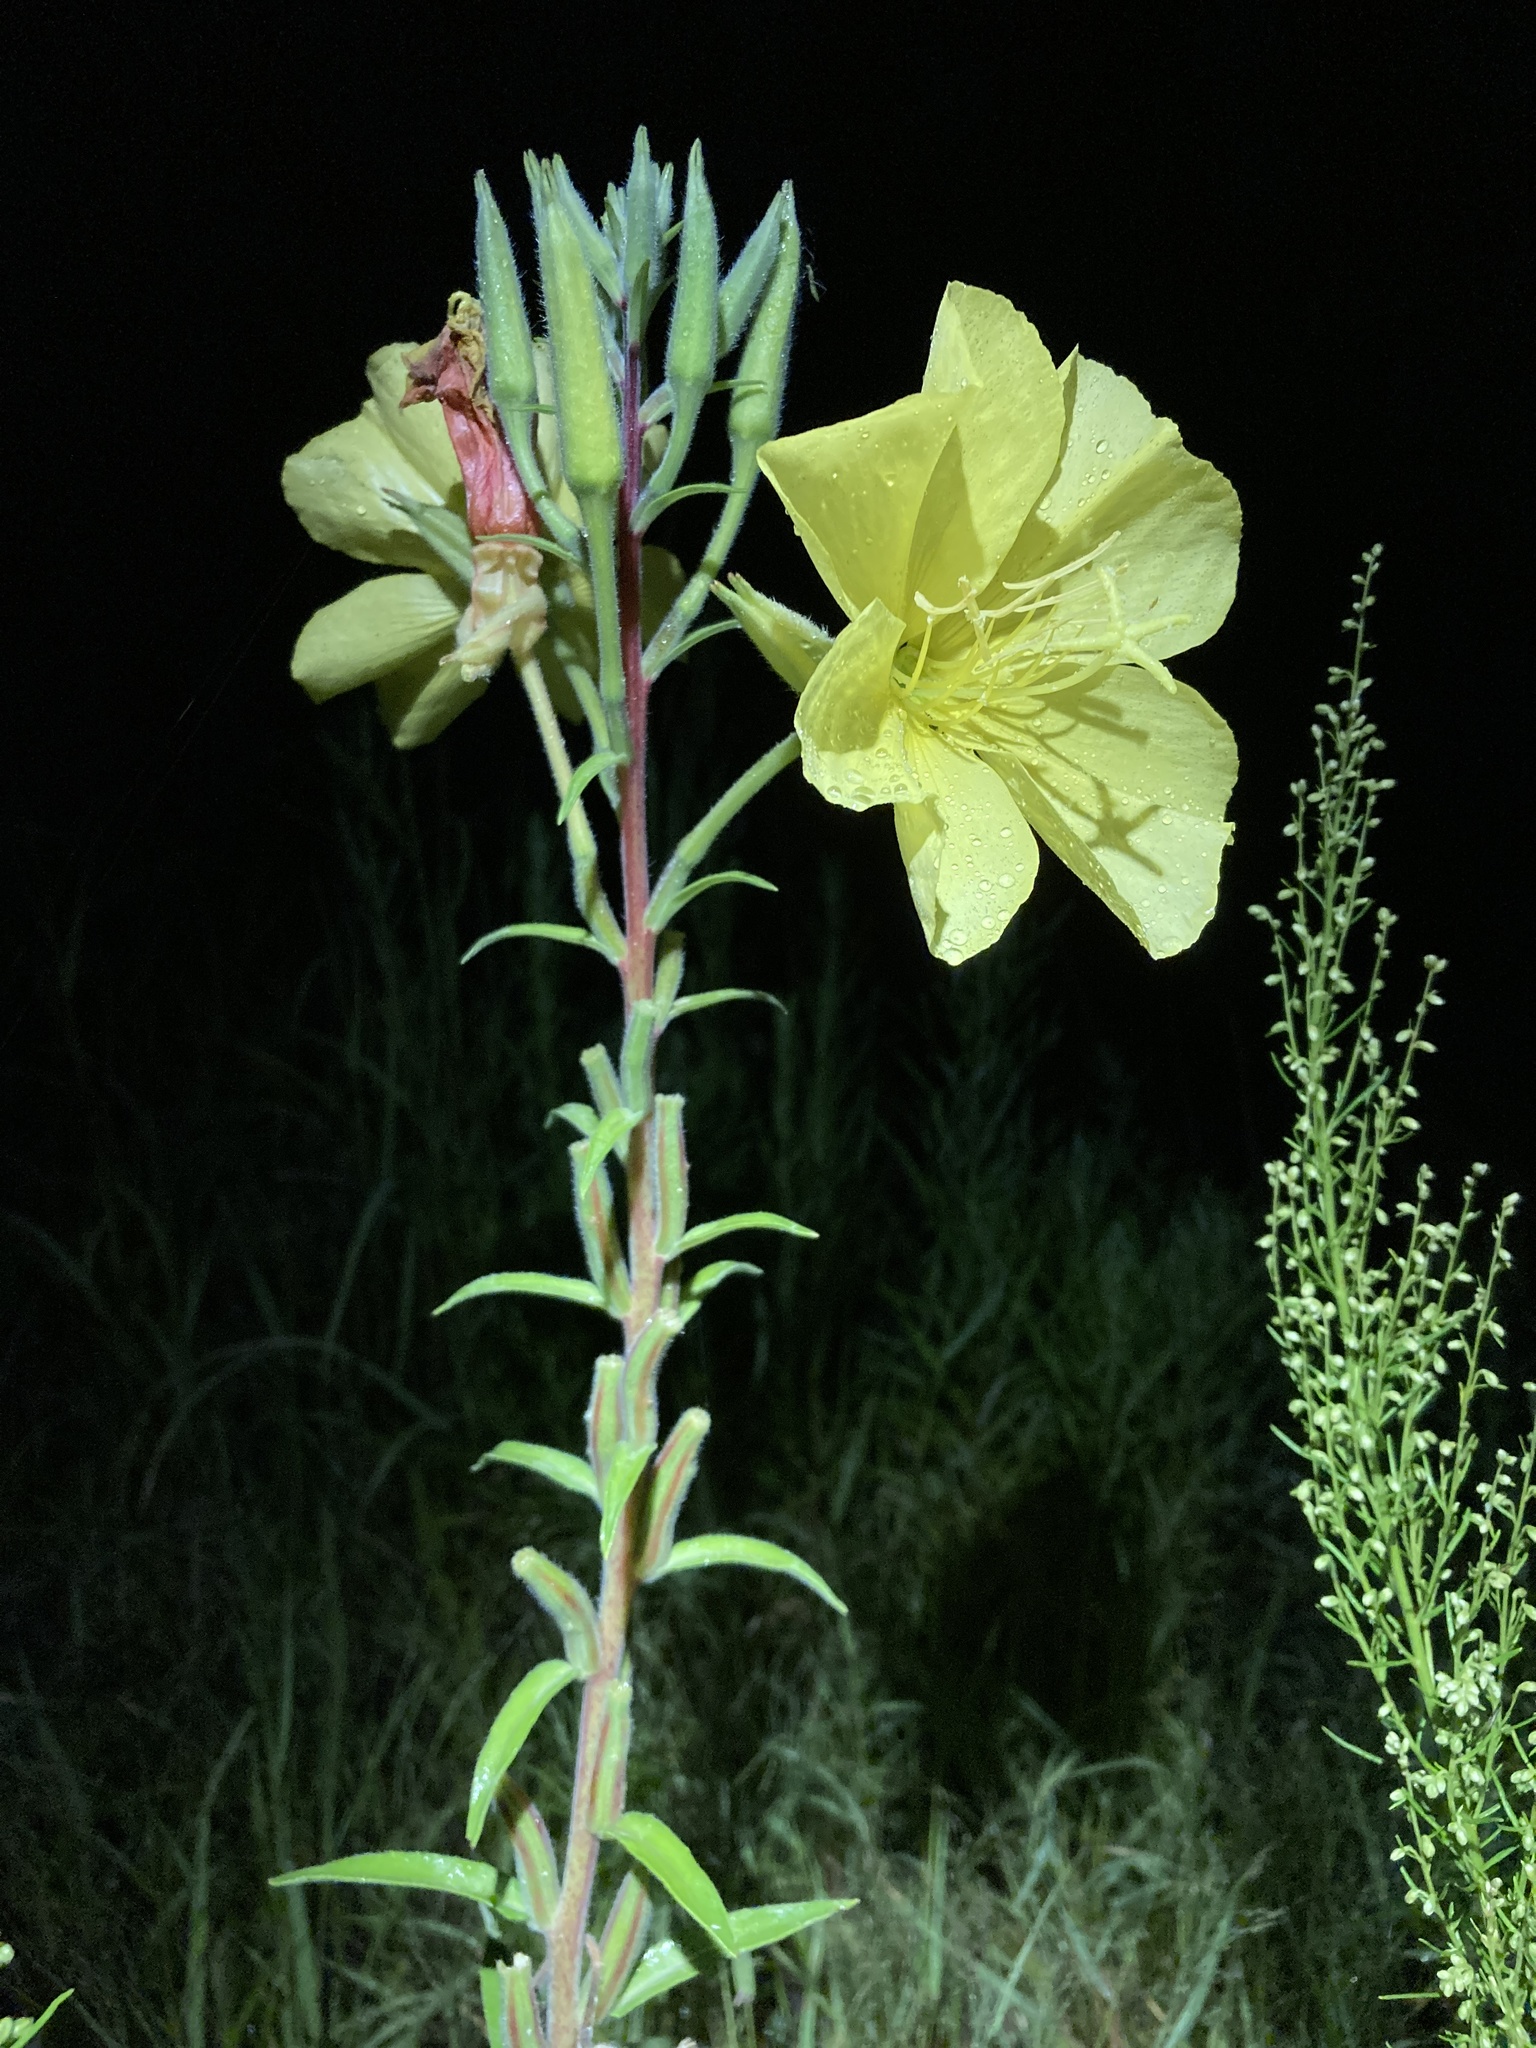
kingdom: Plantae
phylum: Tracheophyta
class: Magnoliopsida
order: Myrtales
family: Onagraceae
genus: Oenothera
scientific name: Oenothera elata
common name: Hooker's evening-primrose
